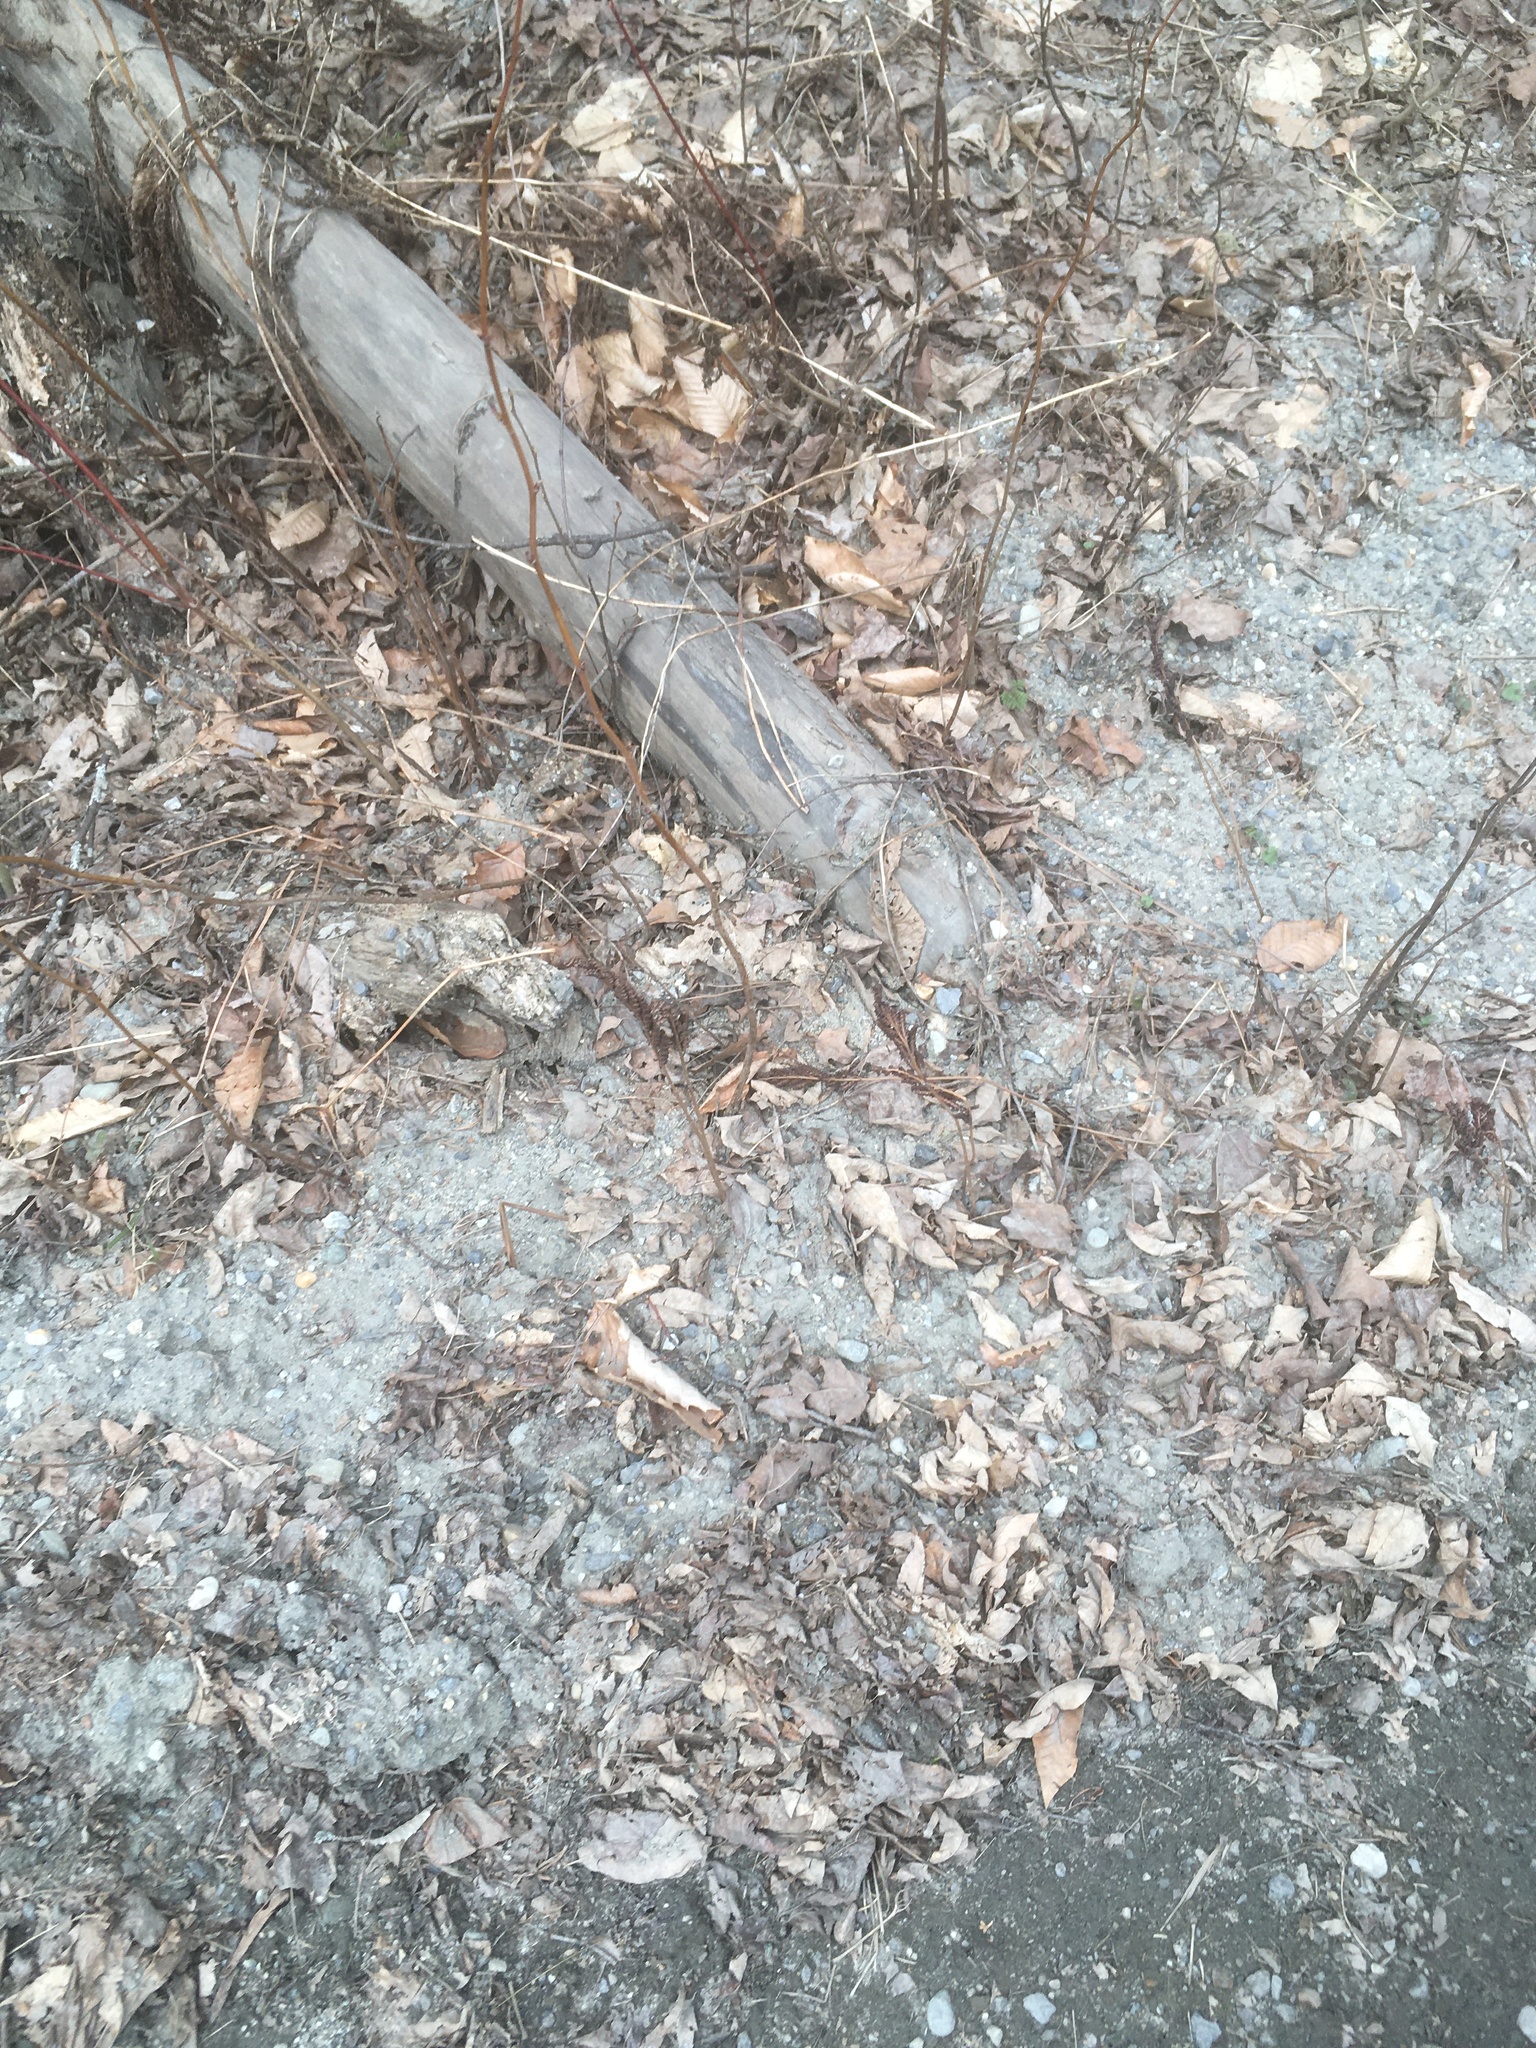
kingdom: Plantae
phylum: Tracheophyta
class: Polypodiopsida
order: Polypodiales
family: Onocleaceae
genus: Onoclea
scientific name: Onoclea sensibilis
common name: Sensitive fern
